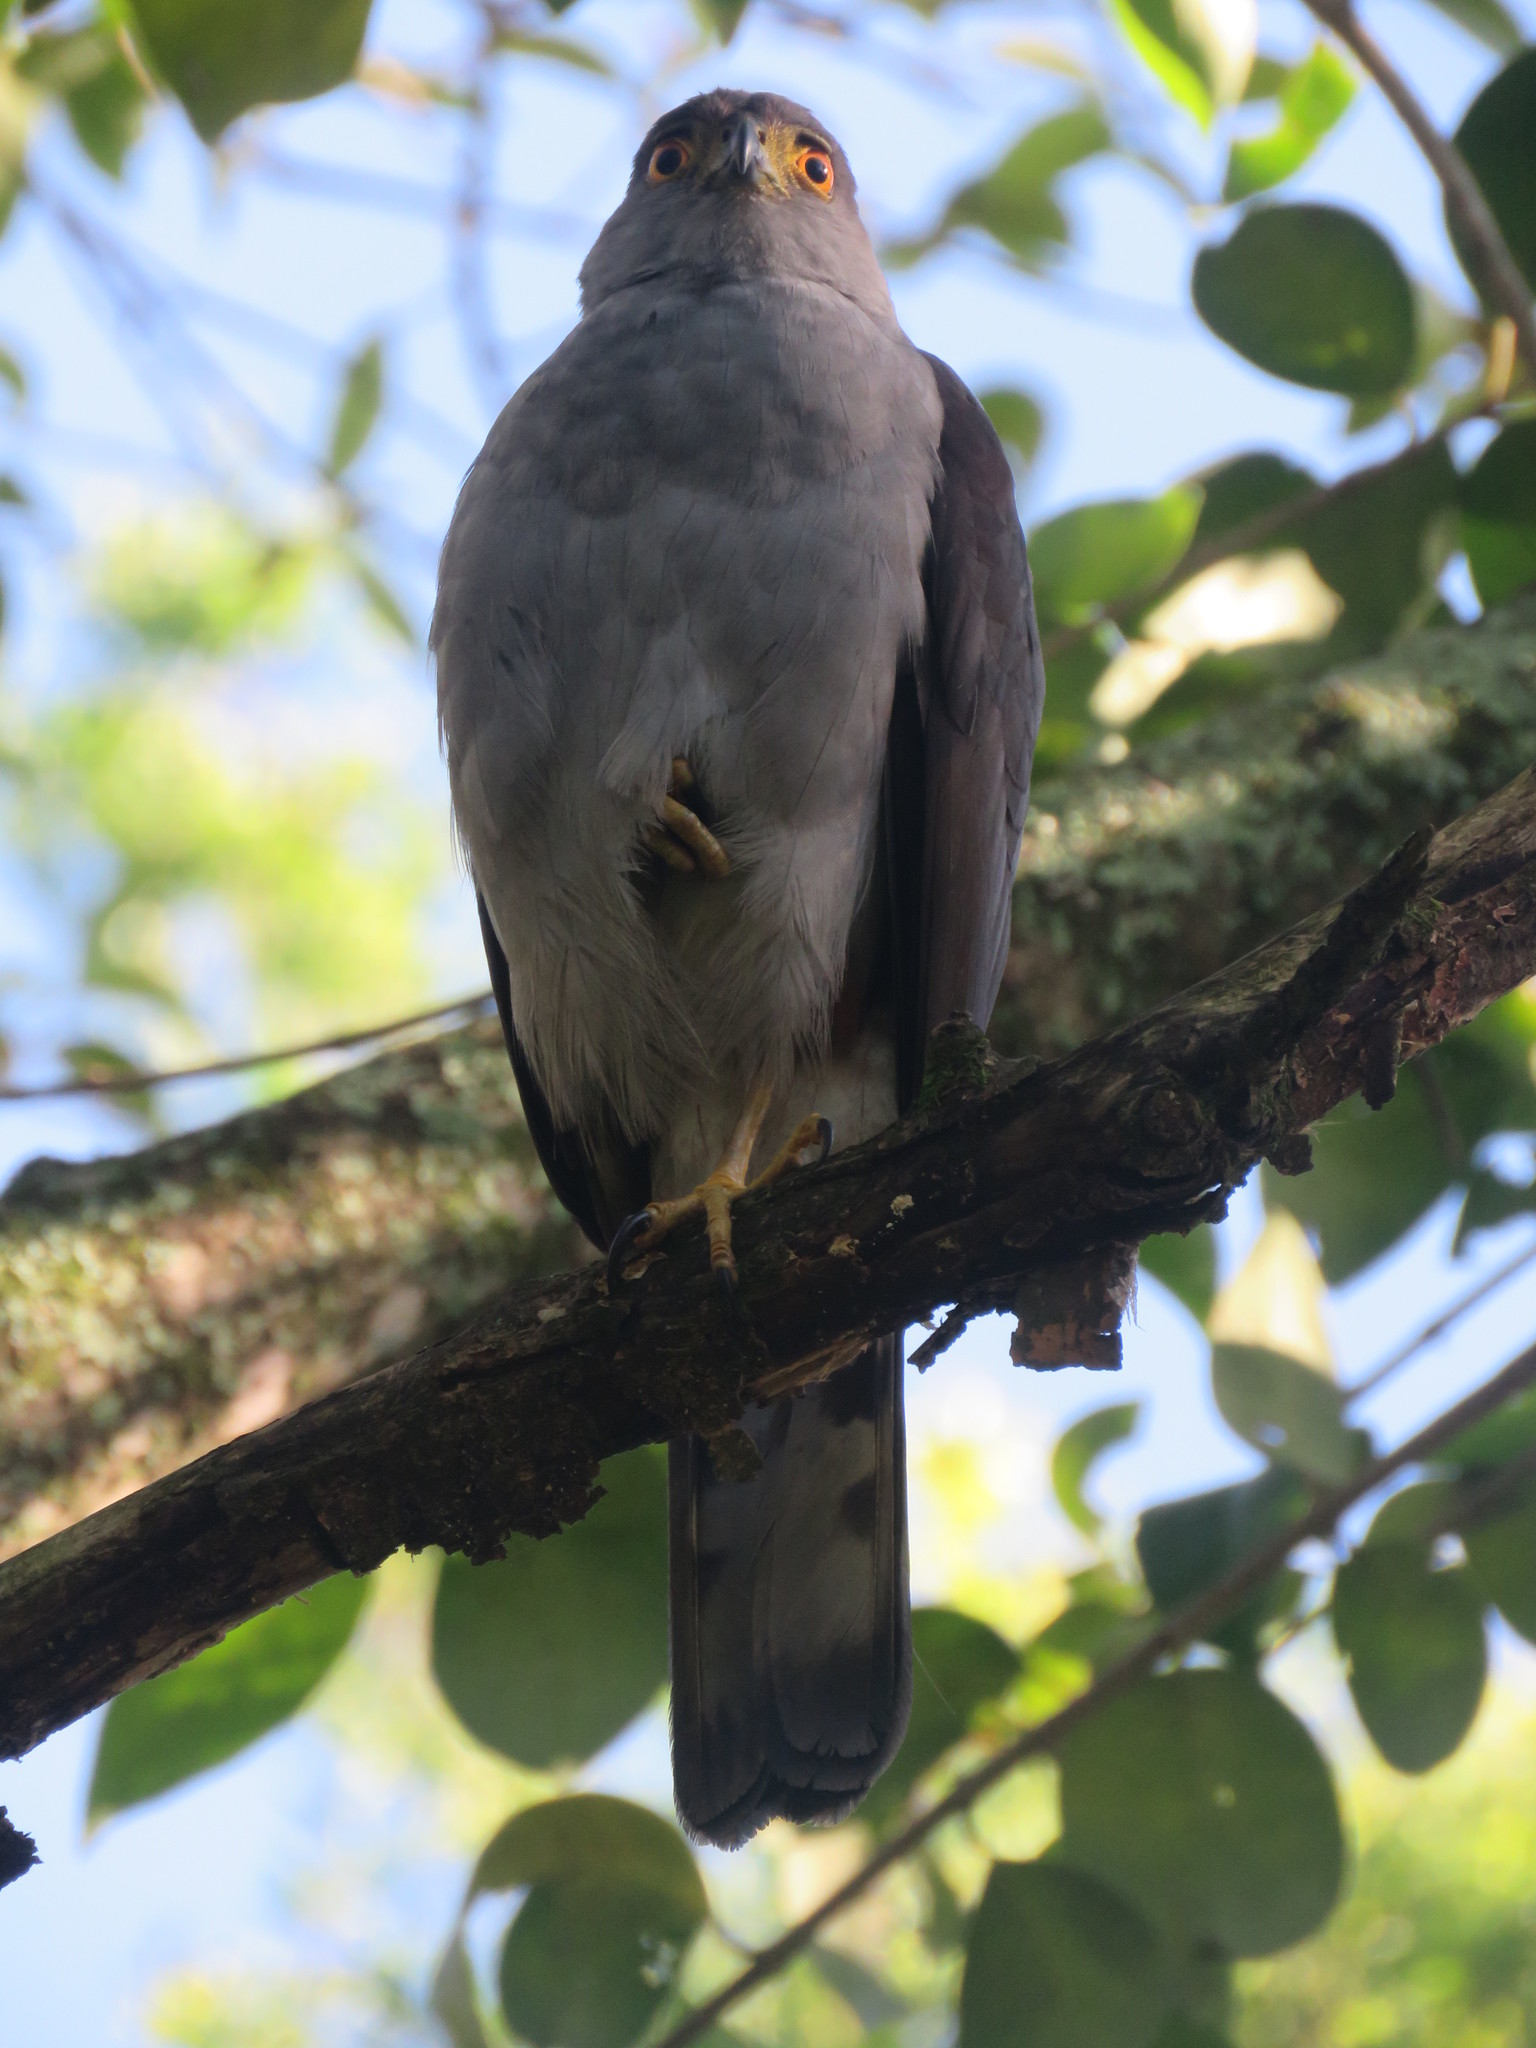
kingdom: Animalia
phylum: Chordata
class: Aves
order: Accipitriformes
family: Accipitridae
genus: Accipiter
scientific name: Accipiter bicolor
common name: Bicolored hawk
